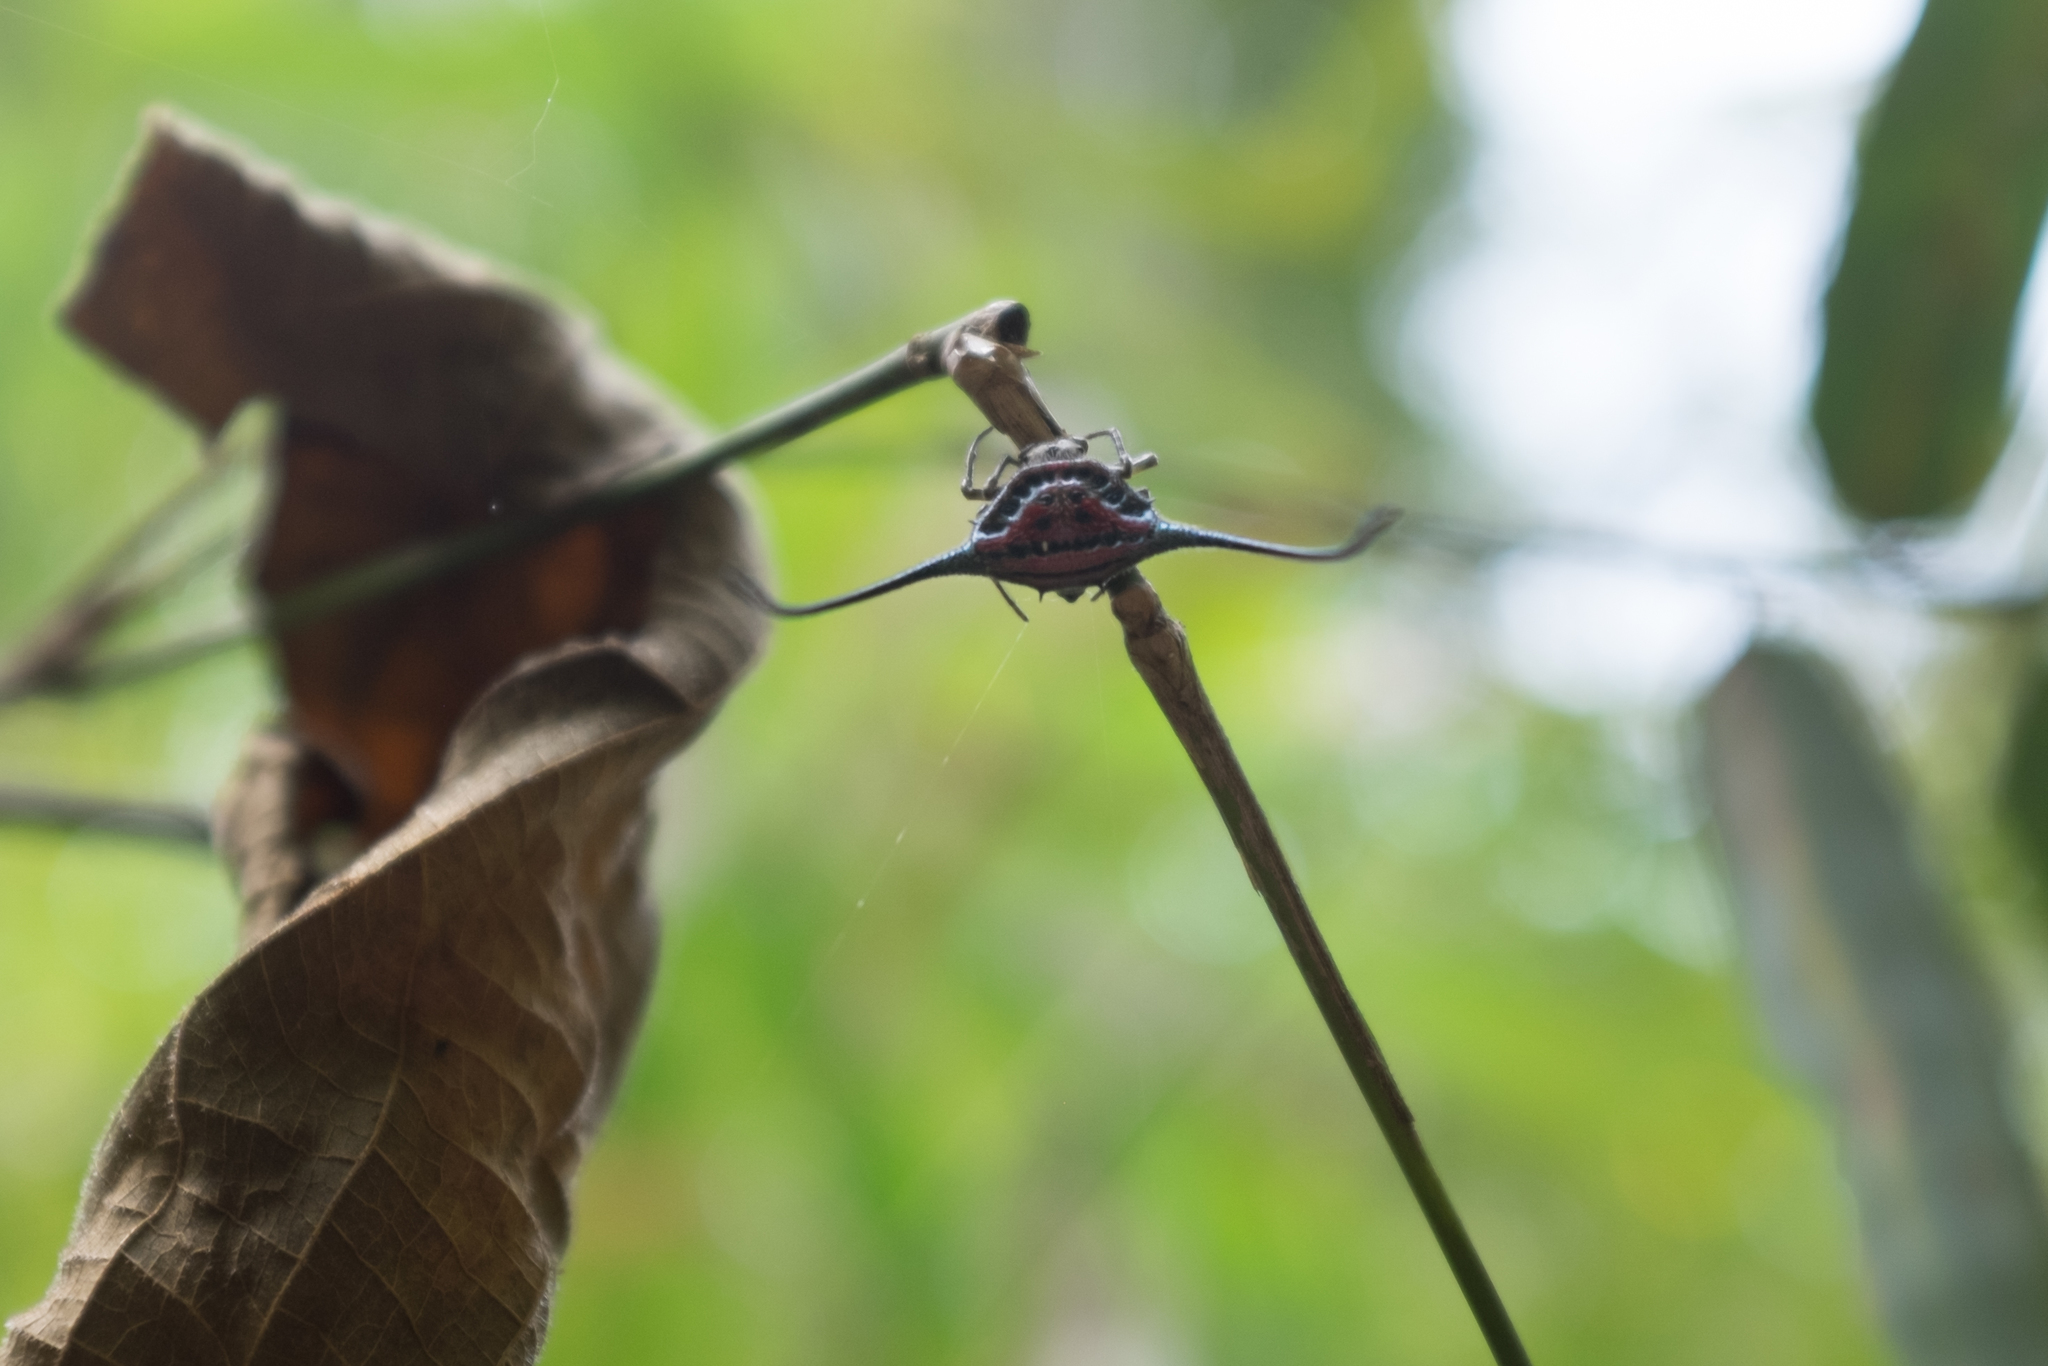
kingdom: Animalia
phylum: Arthropoda
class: Arachnida
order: Araneae
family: Araneidae
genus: Macracantha
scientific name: Macracantha arcuata
